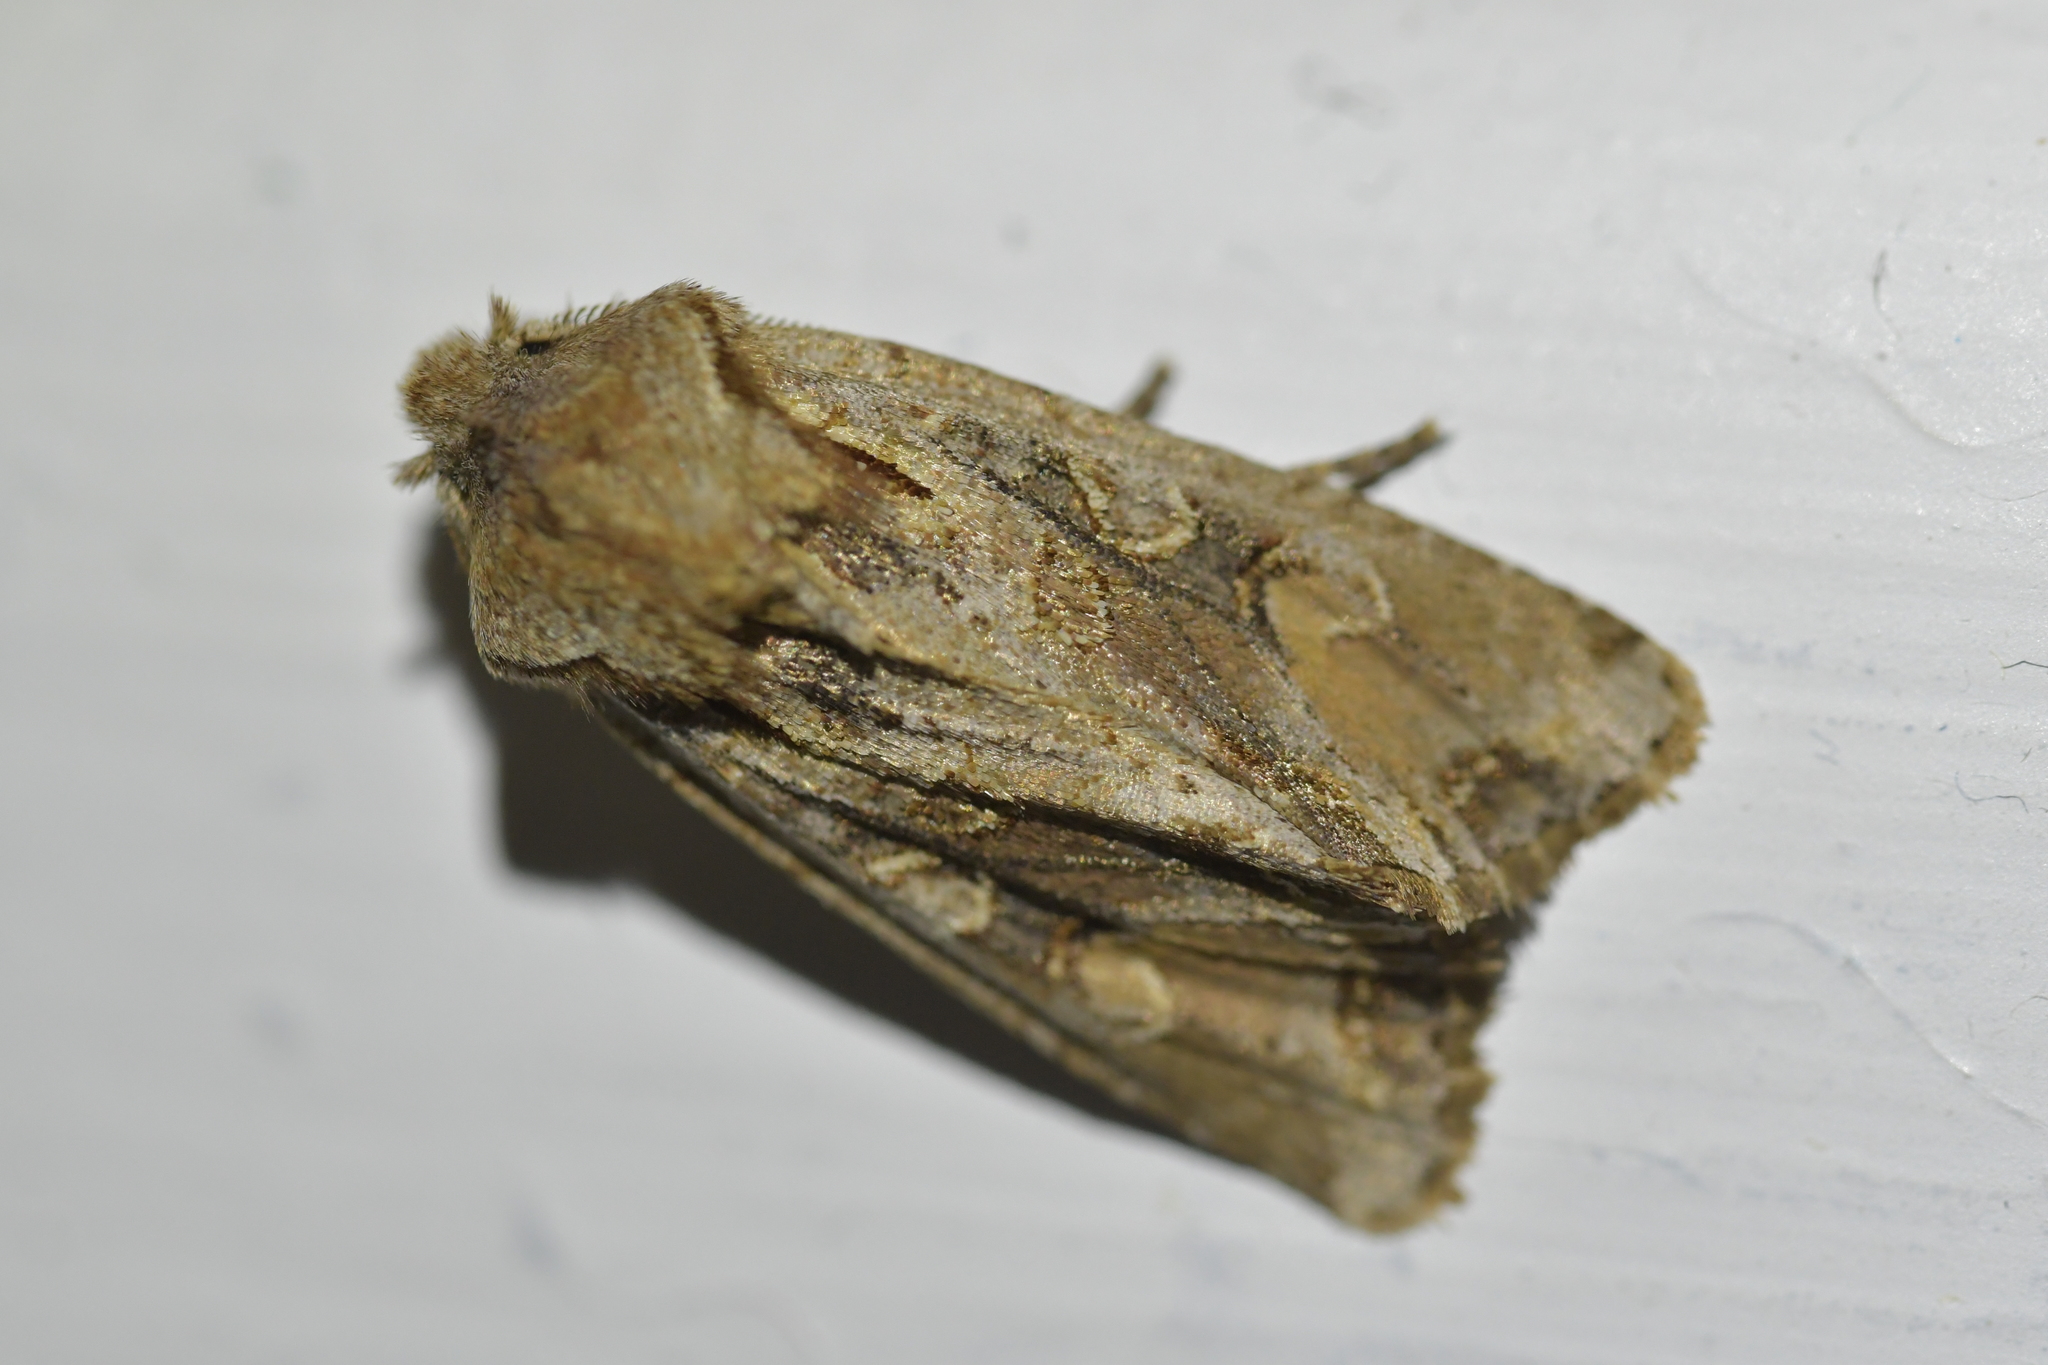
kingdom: Animalia
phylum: Arthropoda
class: Insecta
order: Lepidoptera
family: Noctuidae
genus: Ichneutica
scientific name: Ichneutica
